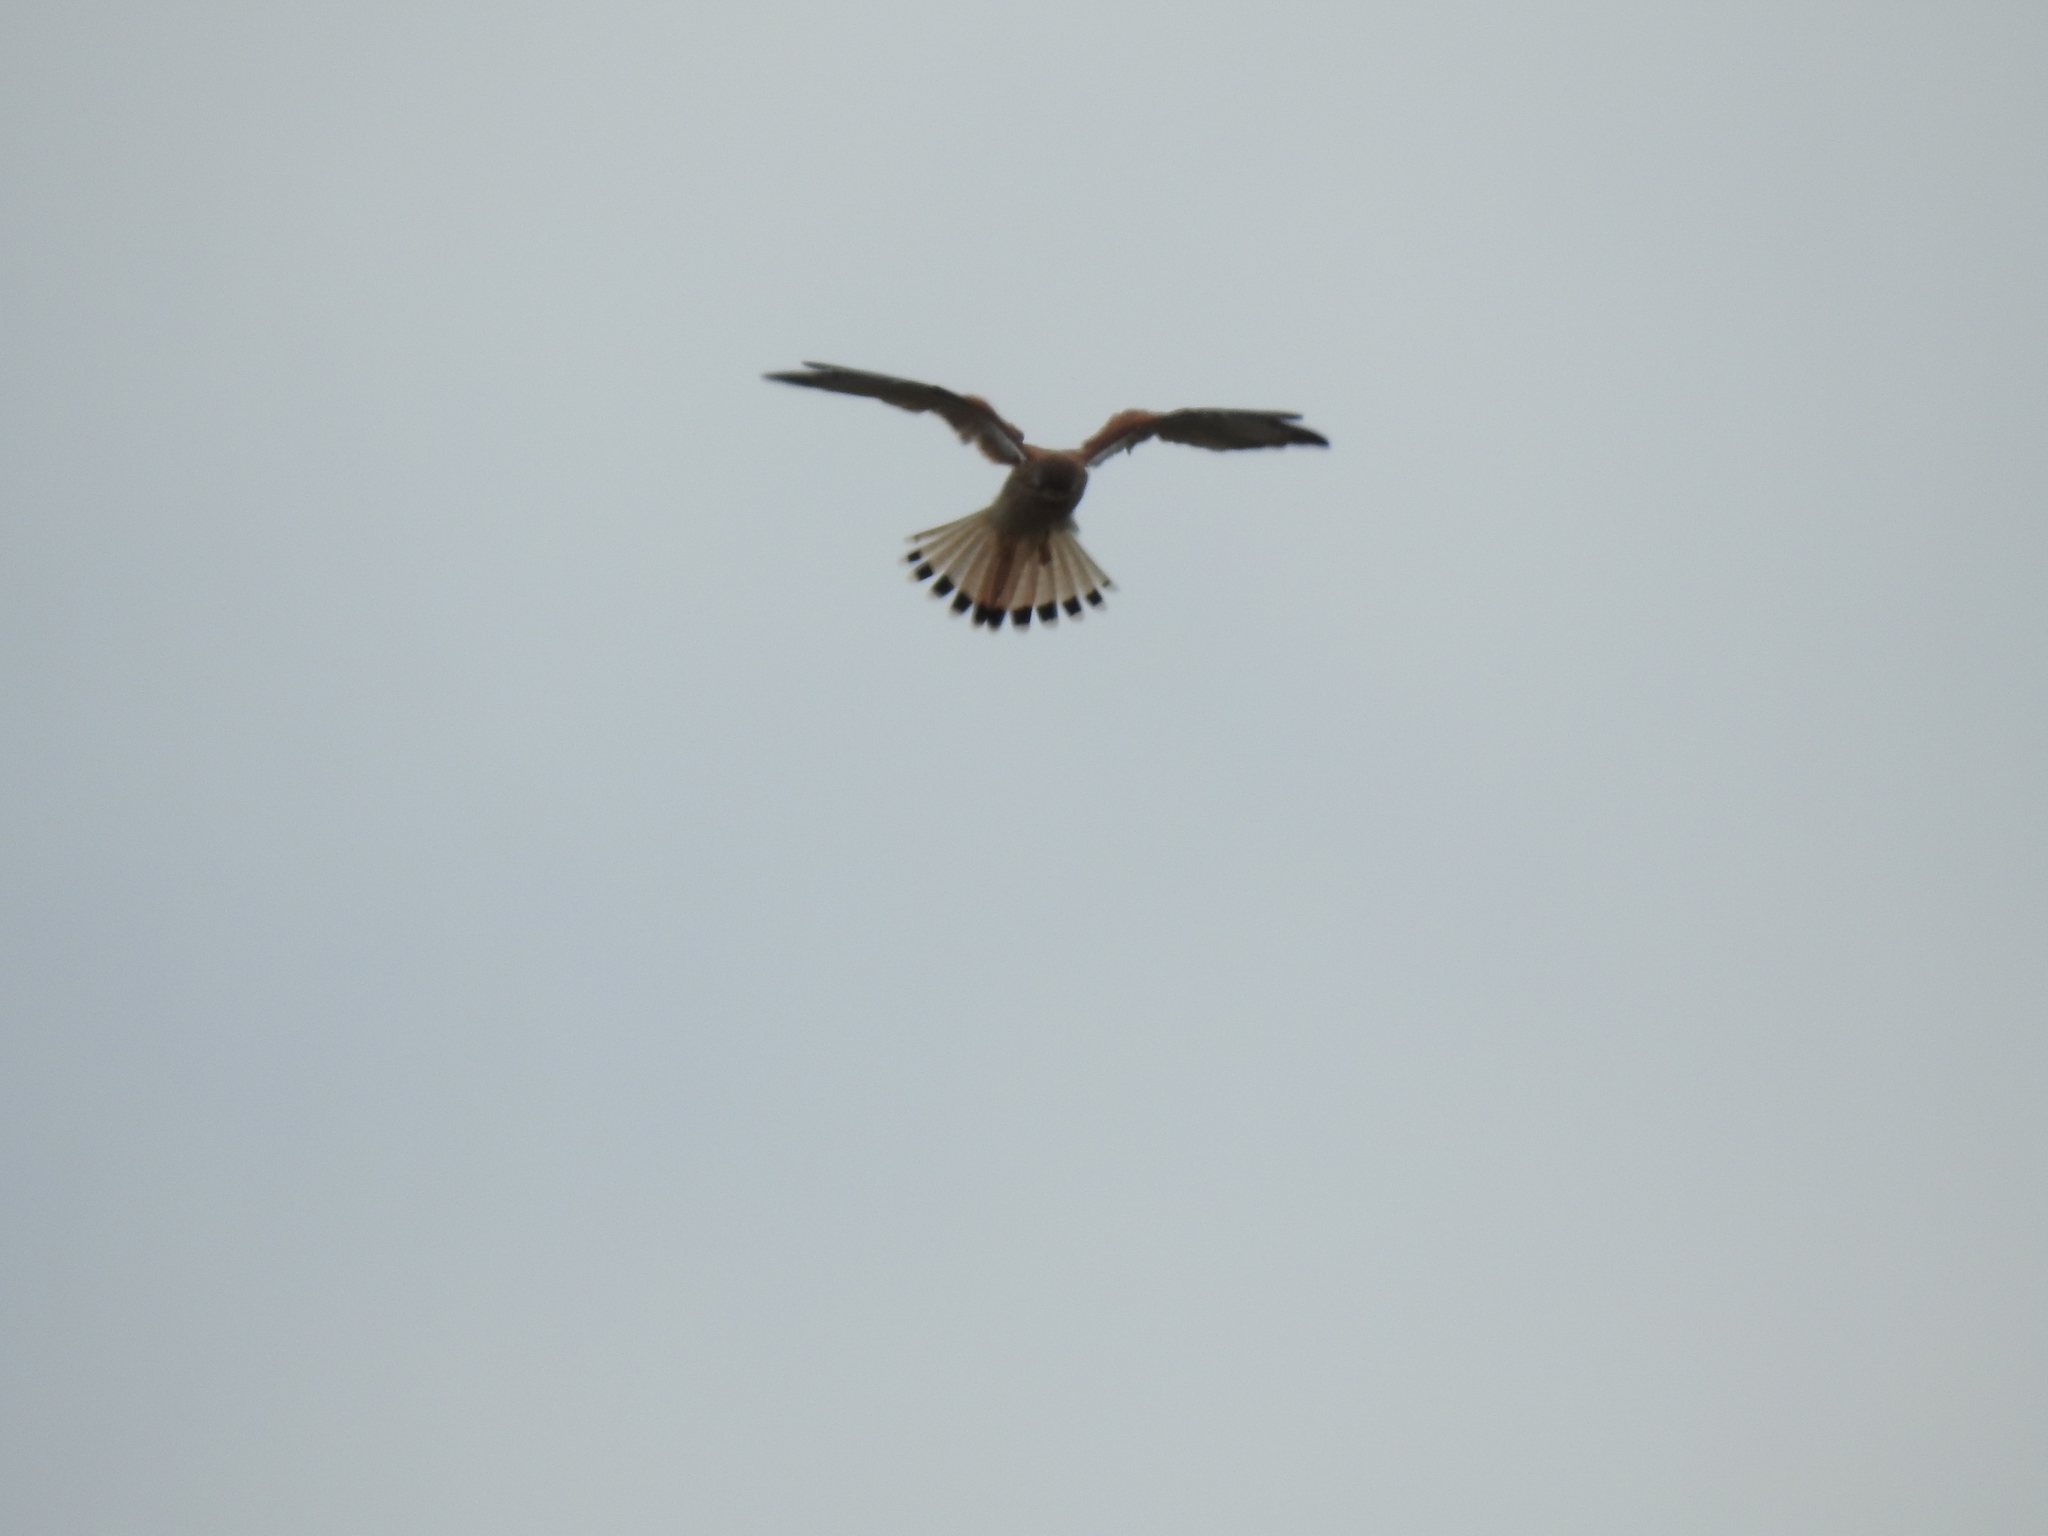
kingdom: Animalia
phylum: Chordata
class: Aves
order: Falconiformes
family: Falconidae
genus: Falco
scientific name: Falco cenchroides
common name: Nankeen kestrel
